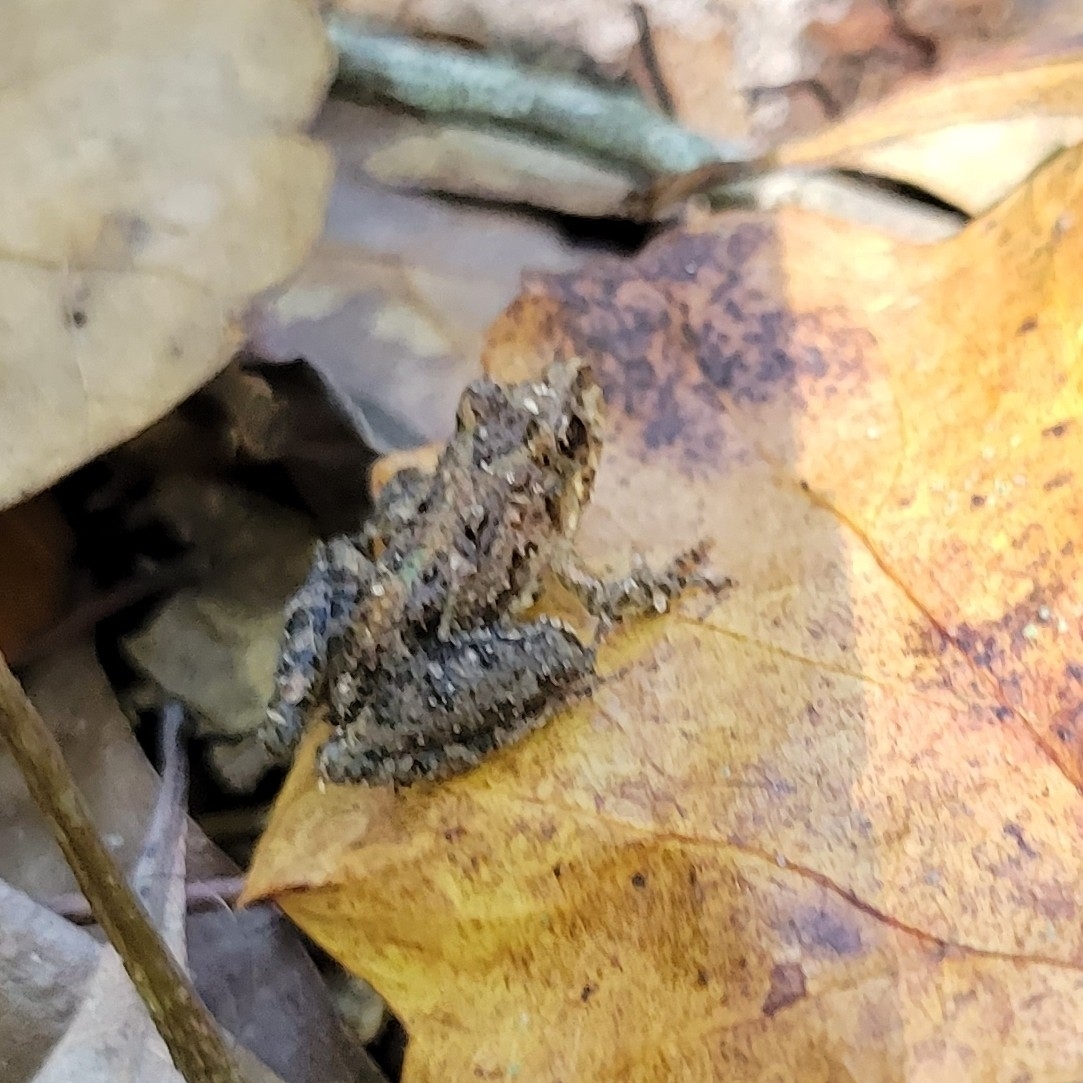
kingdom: Animalia
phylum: Chordata
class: Amphibia
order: Anura
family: Hylidae
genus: Acris
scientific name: Acris gryllus
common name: Southern cricket frog
